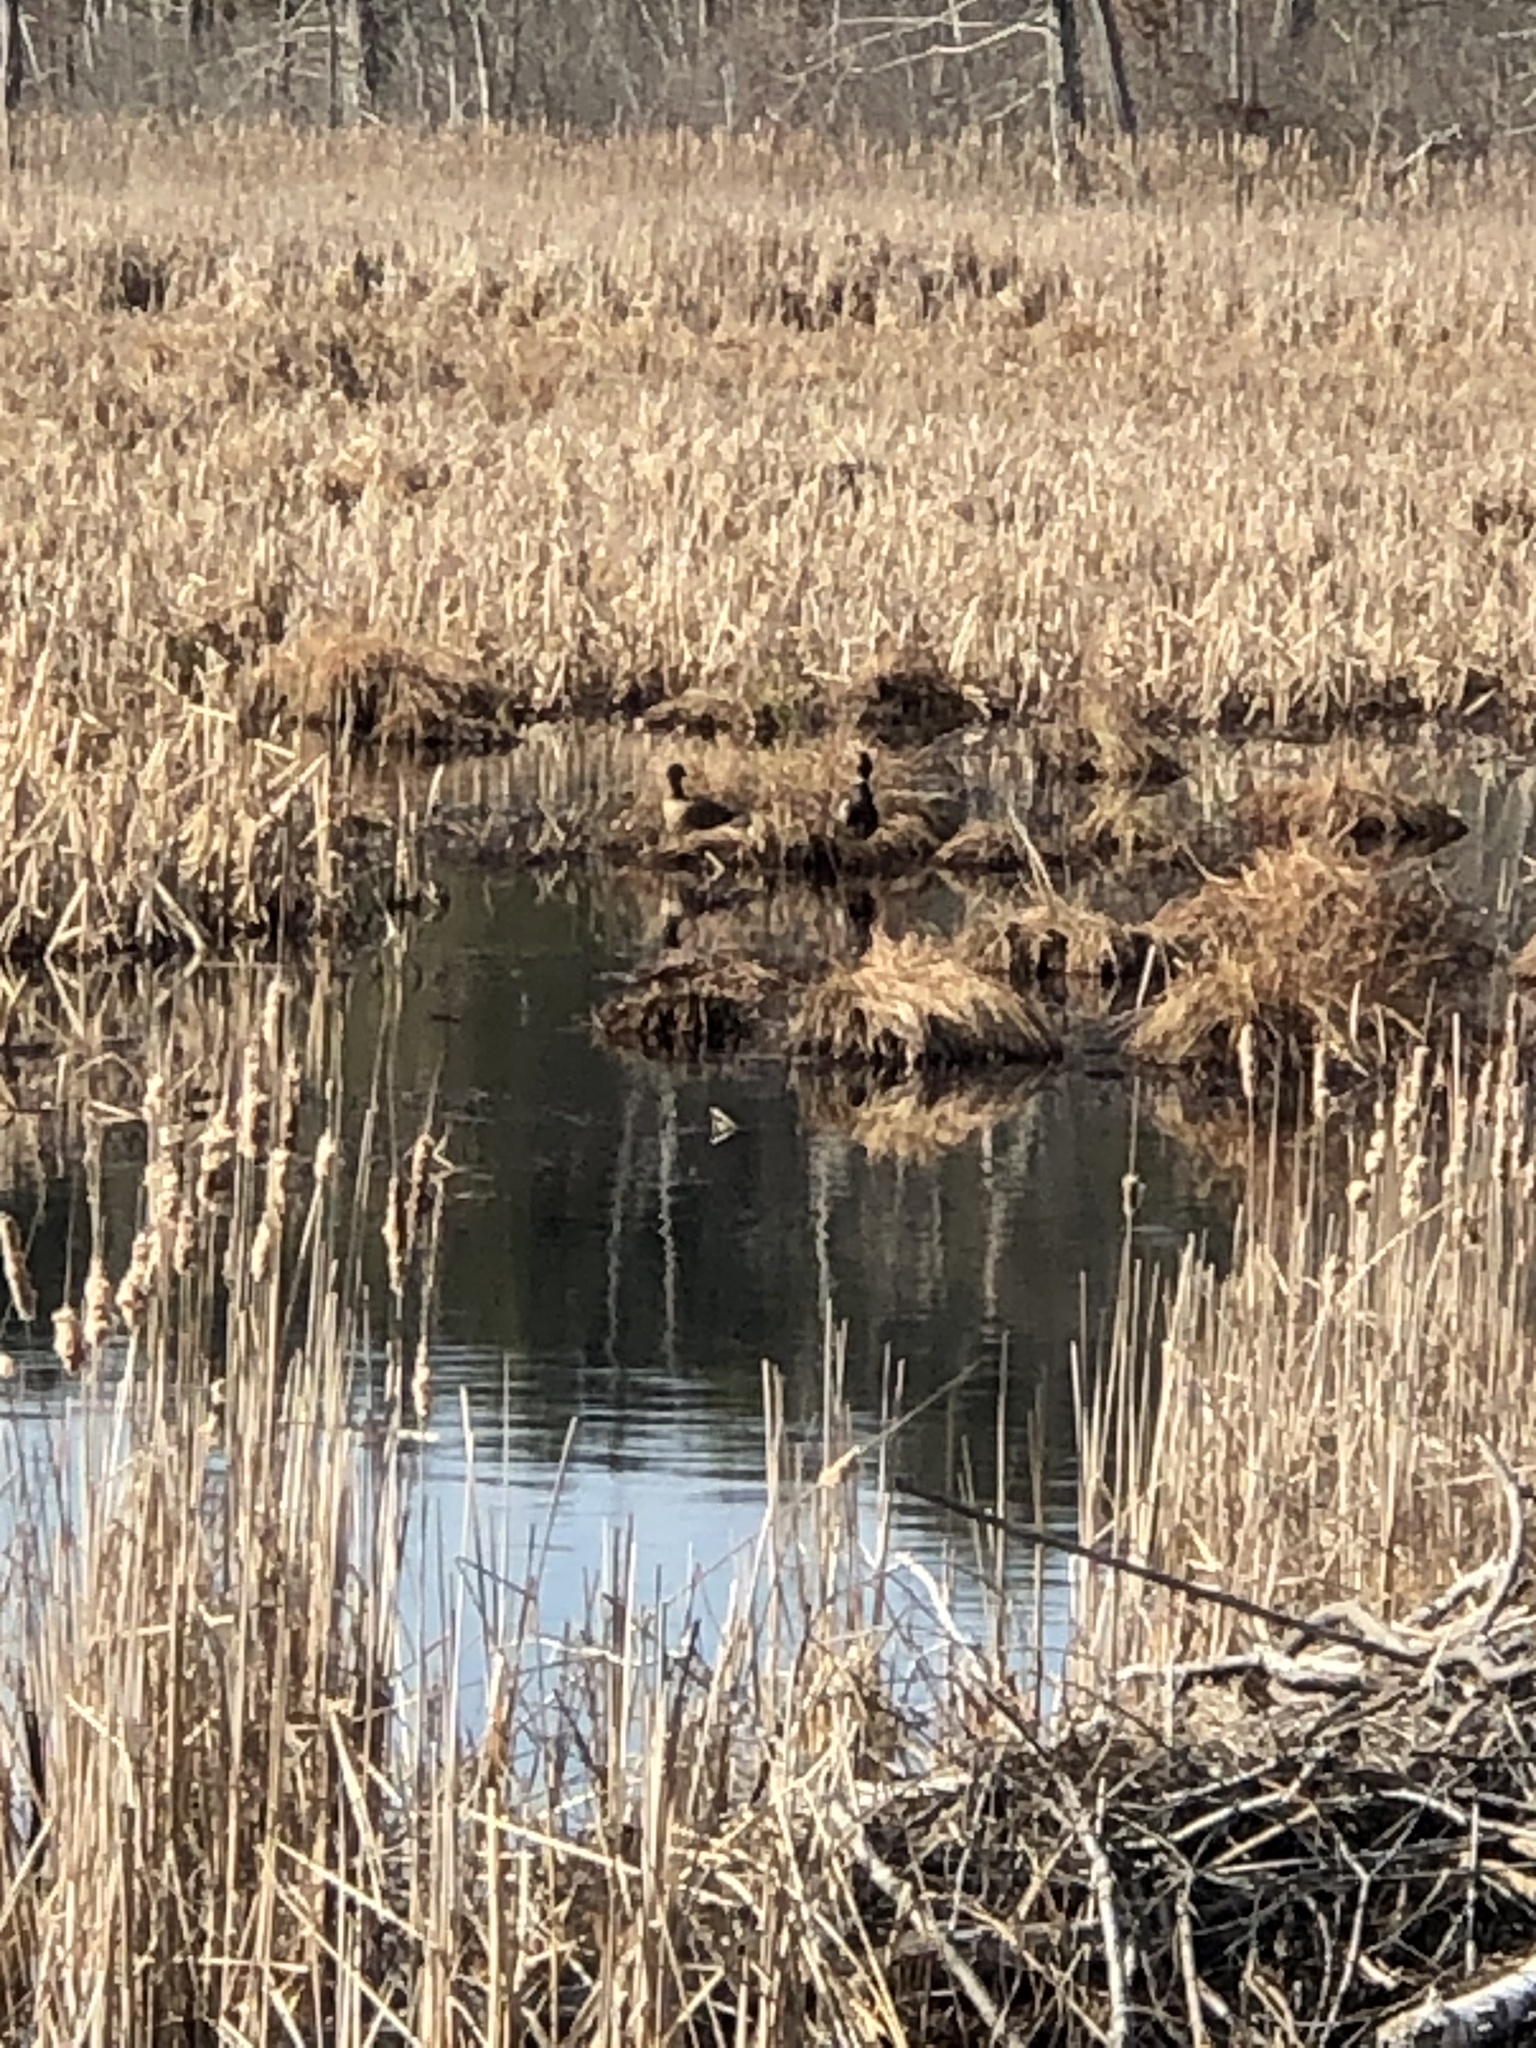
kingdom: Animalia
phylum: Chordata
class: Aves
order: Anseriformes
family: Anatidae
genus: Branta
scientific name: Branta canadensis
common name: Canada goose
